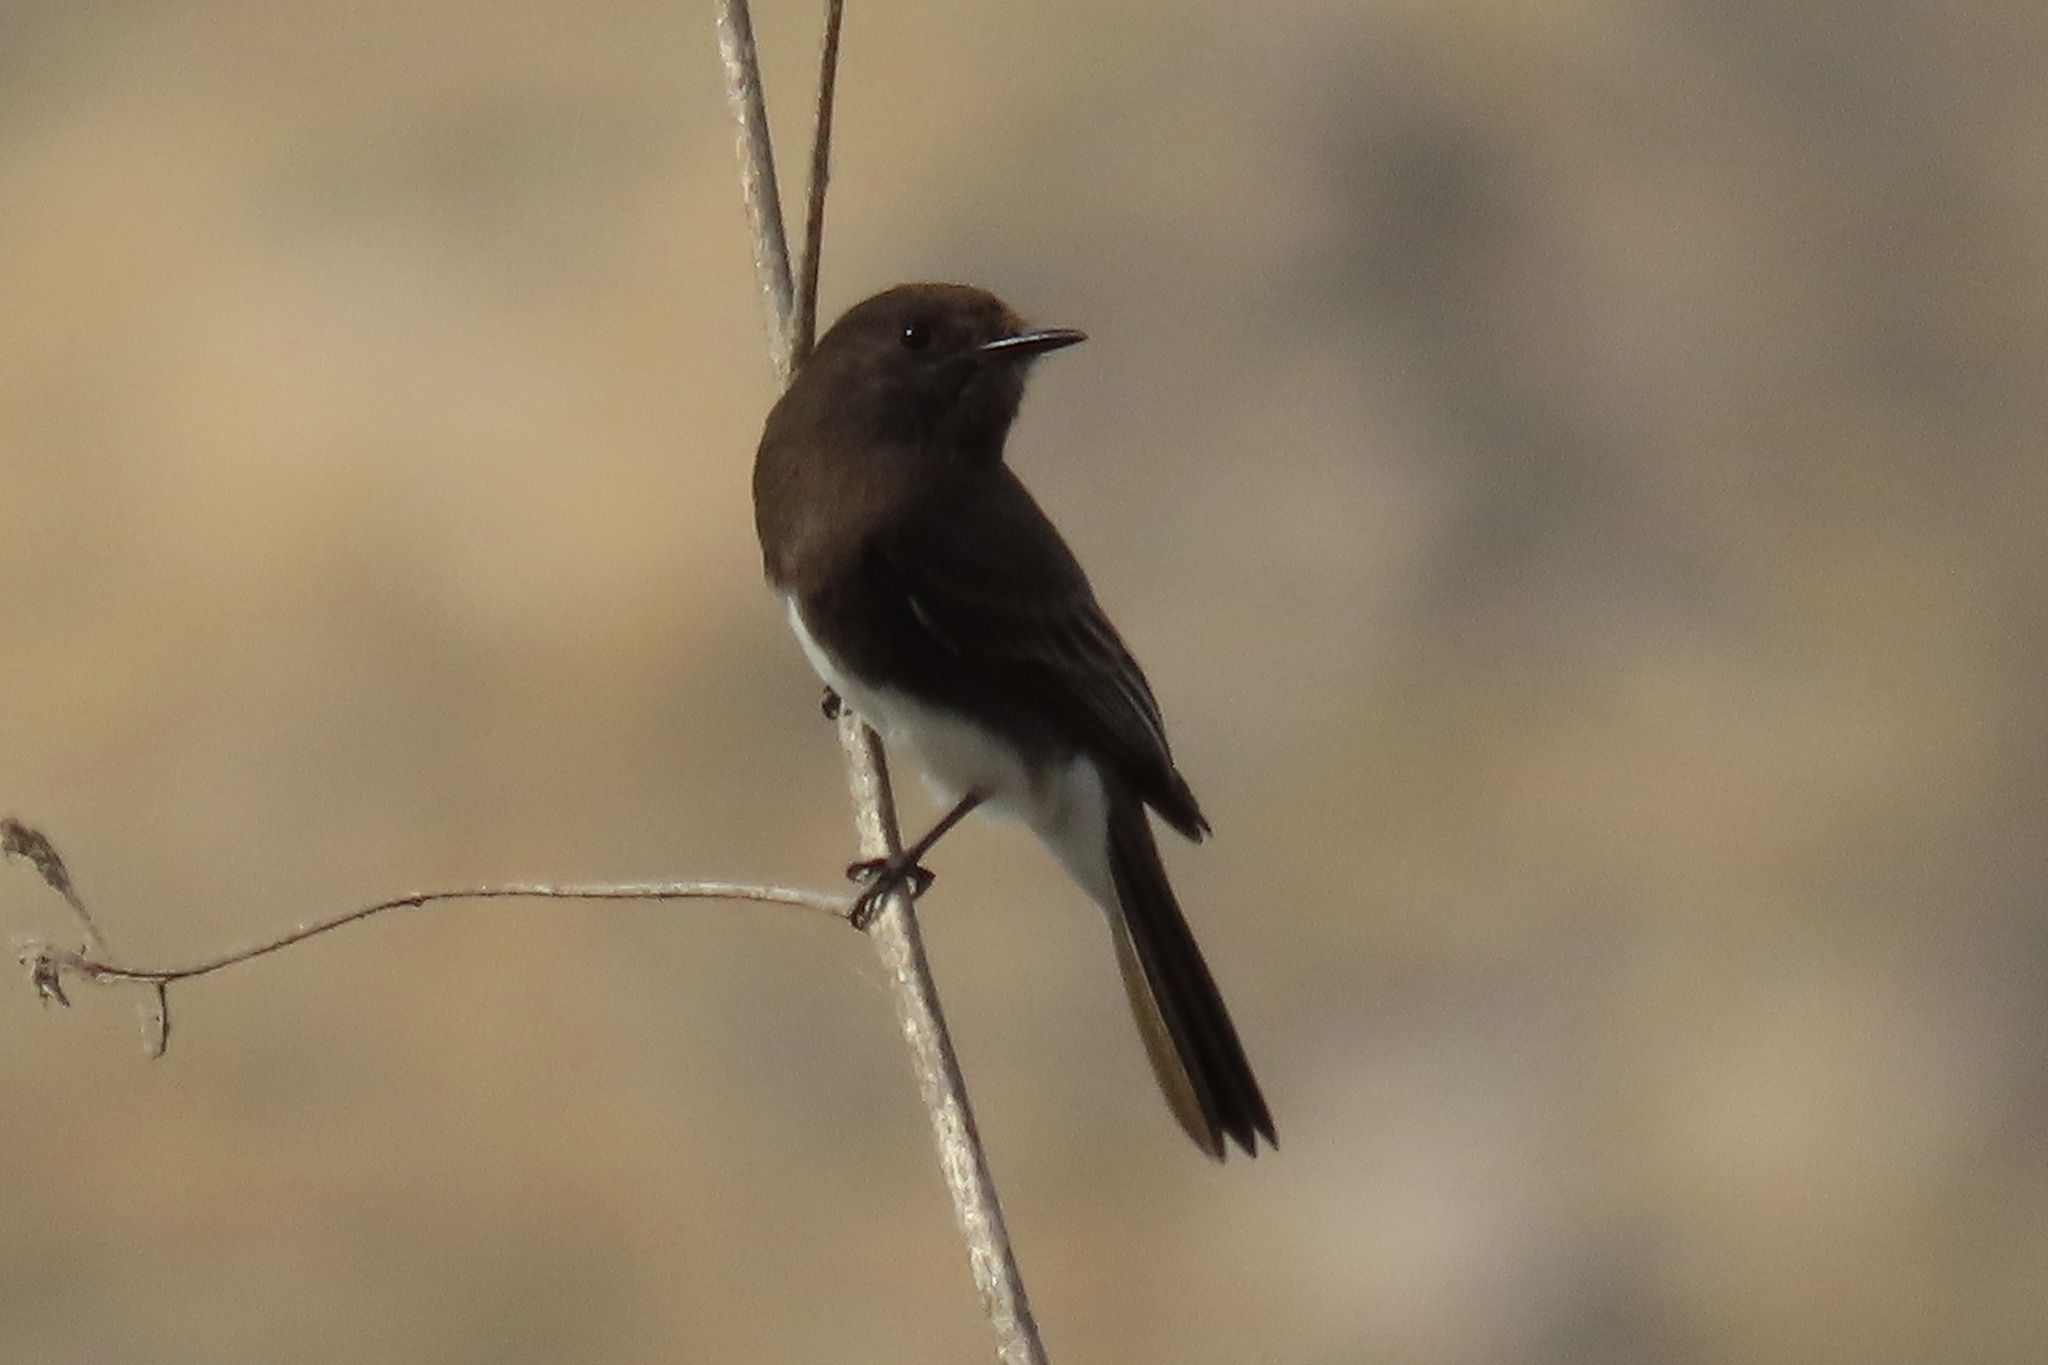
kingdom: Animalia
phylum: Chordata
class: Aves
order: Passeriformes
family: Tyrannidae
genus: Sayornis
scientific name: Sayornis nigricans
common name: Black phoebe
